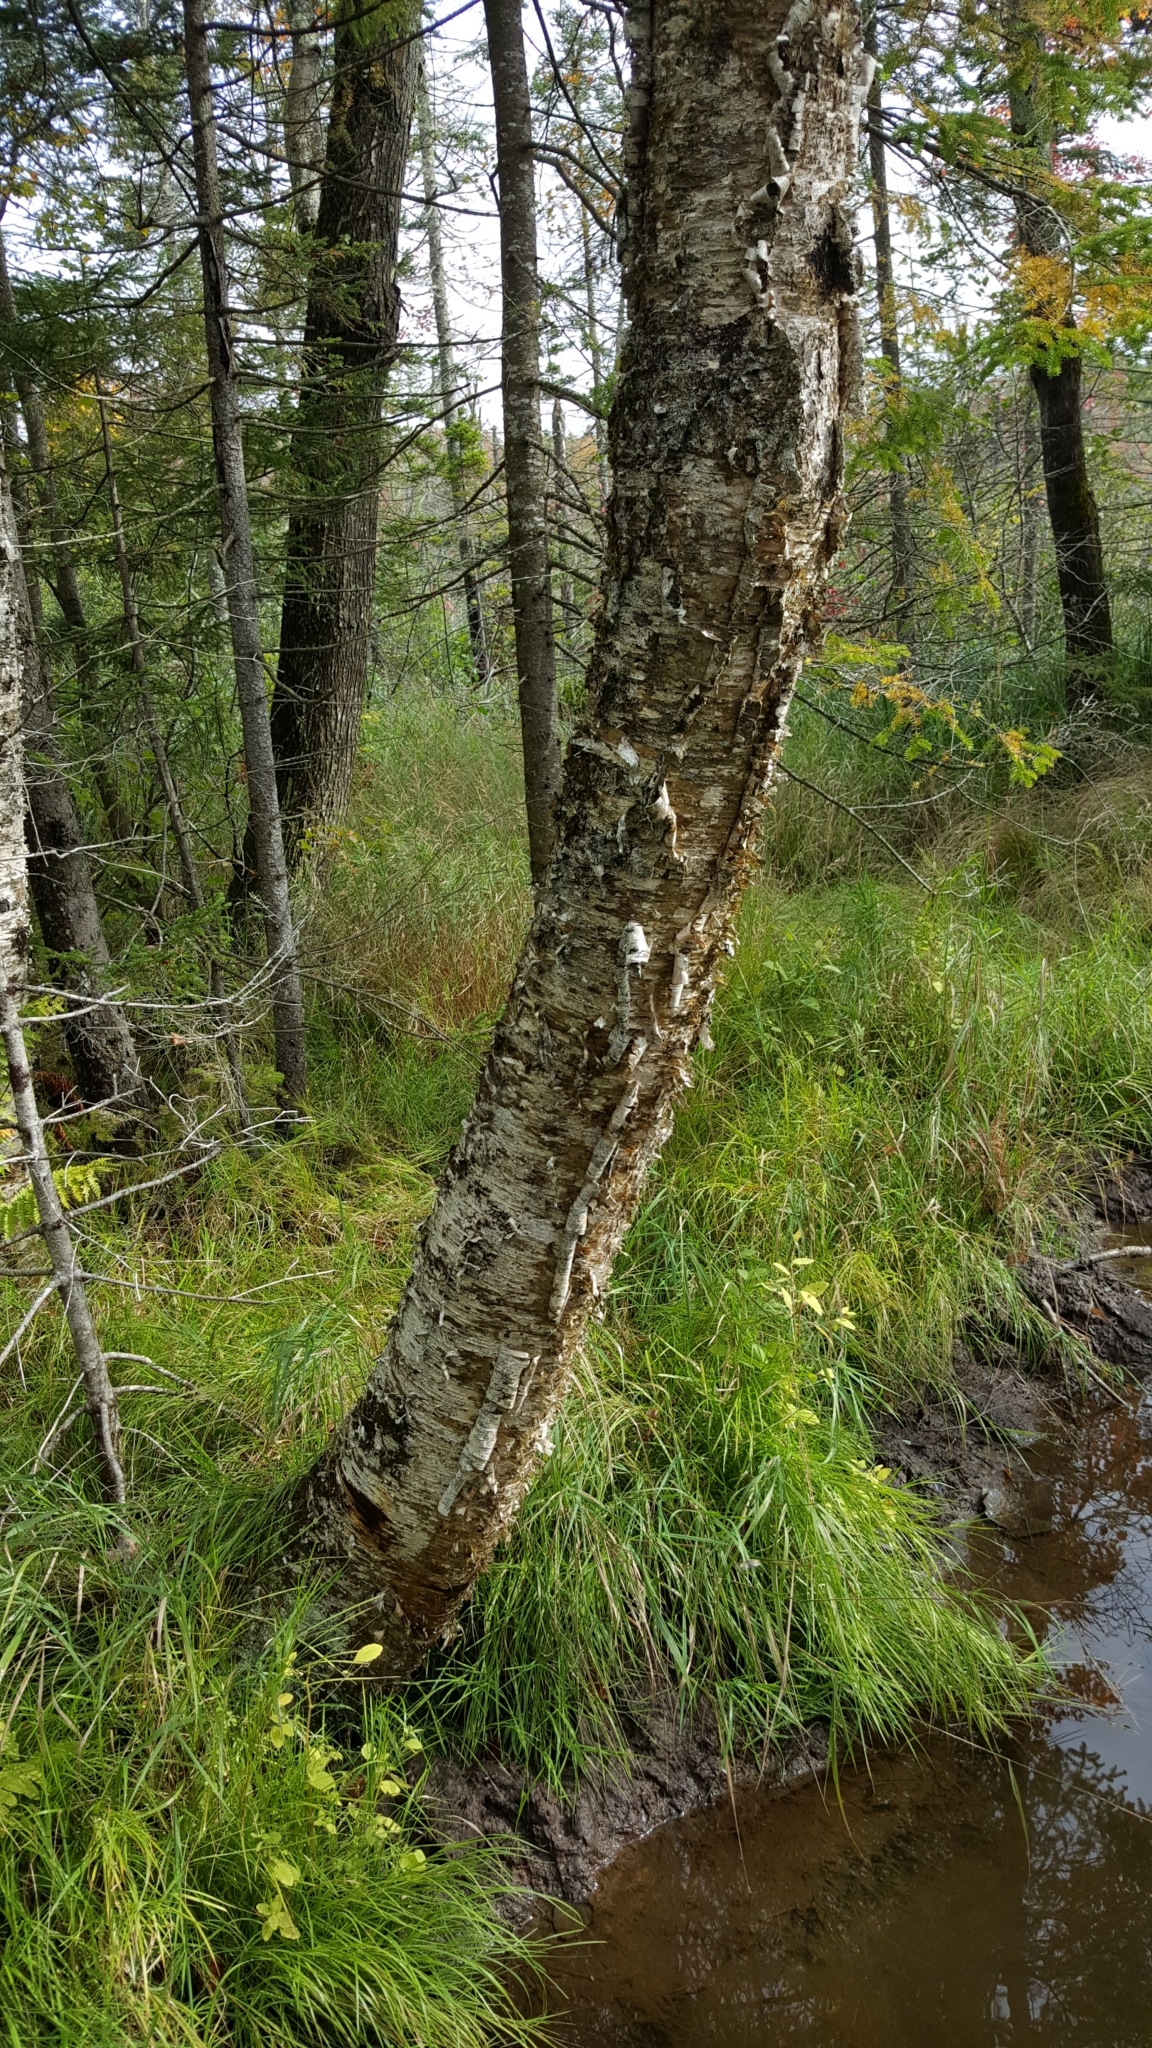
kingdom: Plantae
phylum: Tracheophyta
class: Magnoliopsida
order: Fagales
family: Betulaceae
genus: Betula
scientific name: Betula alleghaniensis
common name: Yellow birch
